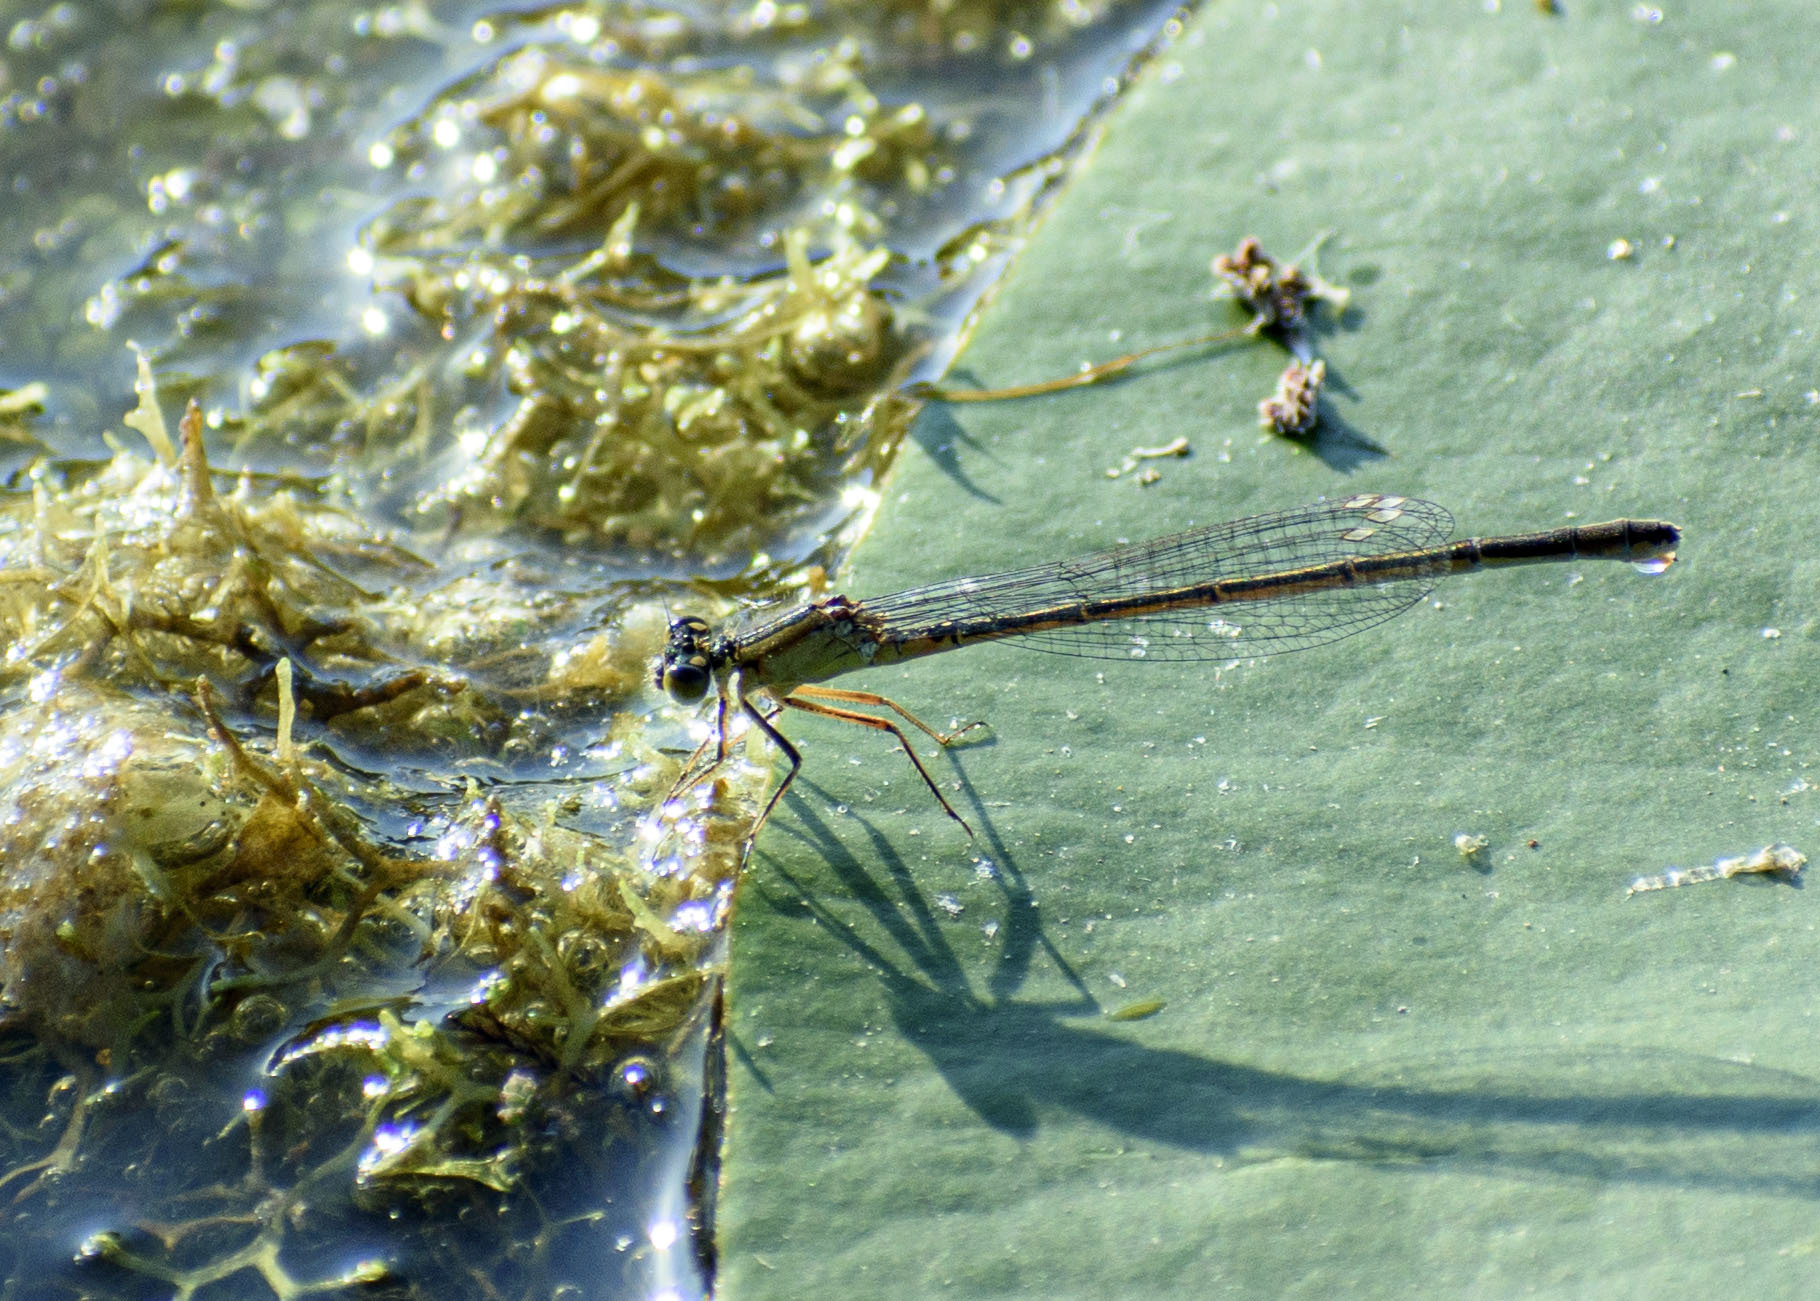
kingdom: Animalia
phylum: Arthropoda
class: Insecta
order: Odonata
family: Coenagrionidae
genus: Ischnura
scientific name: Ischnura elegans
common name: Blue-tailed damselfly
